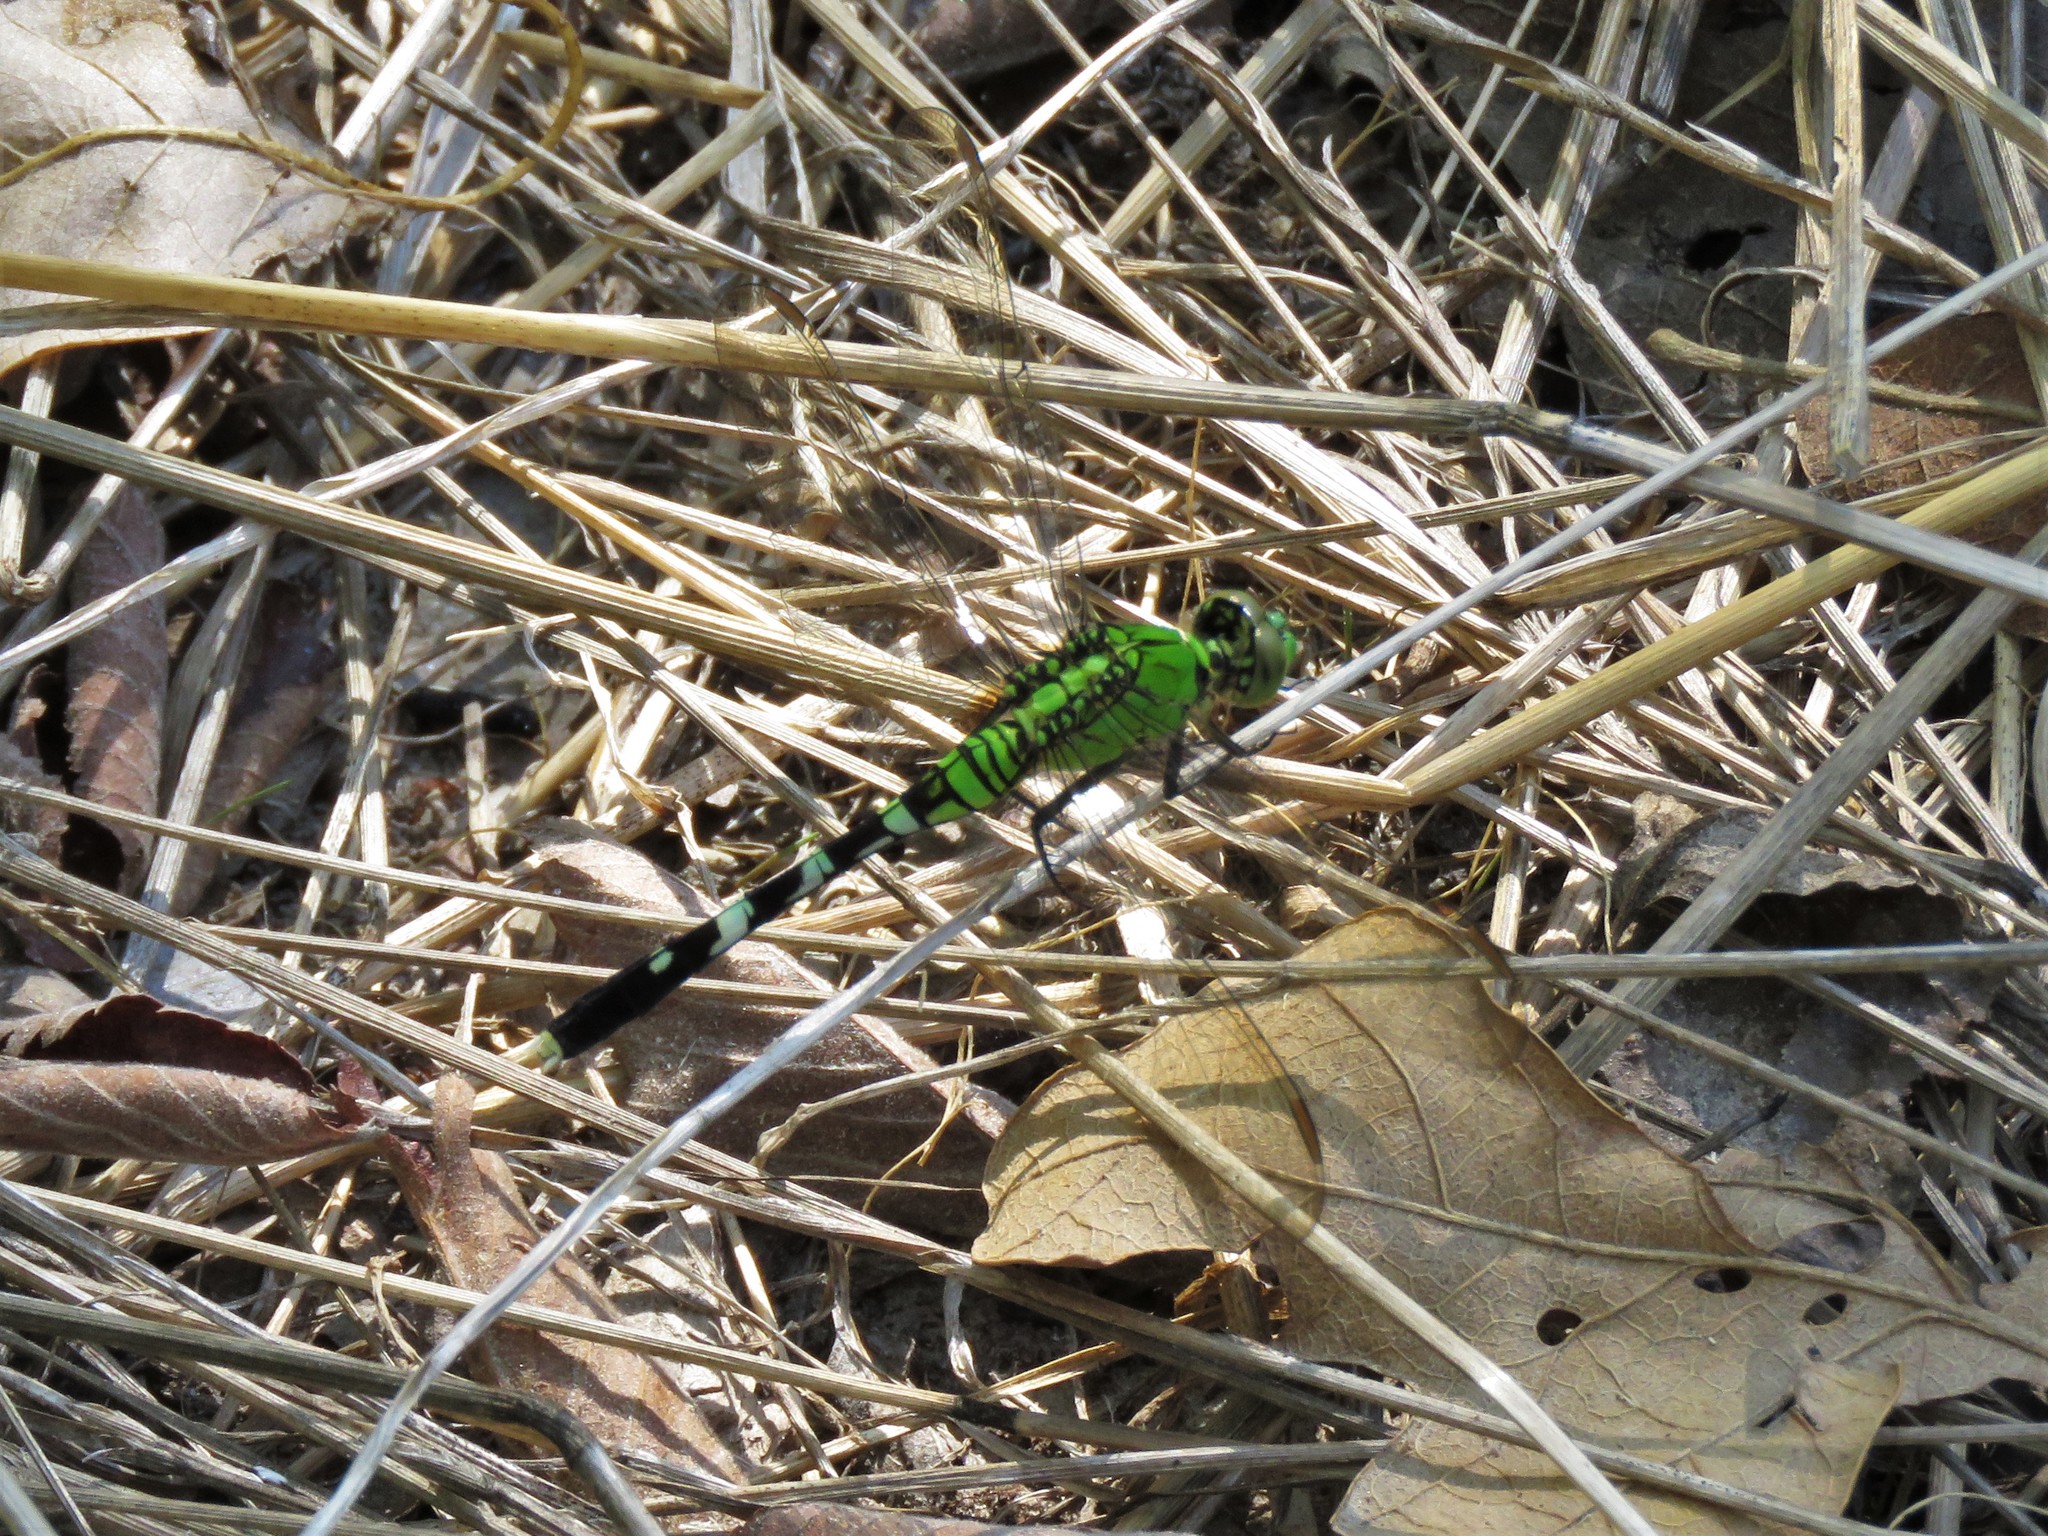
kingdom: Animalia
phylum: Arthropoda
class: Insecta
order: Odonata
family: Libellulidae
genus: Erythemis
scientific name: Erythemis simplicicollis
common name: Eastern pondhawk
